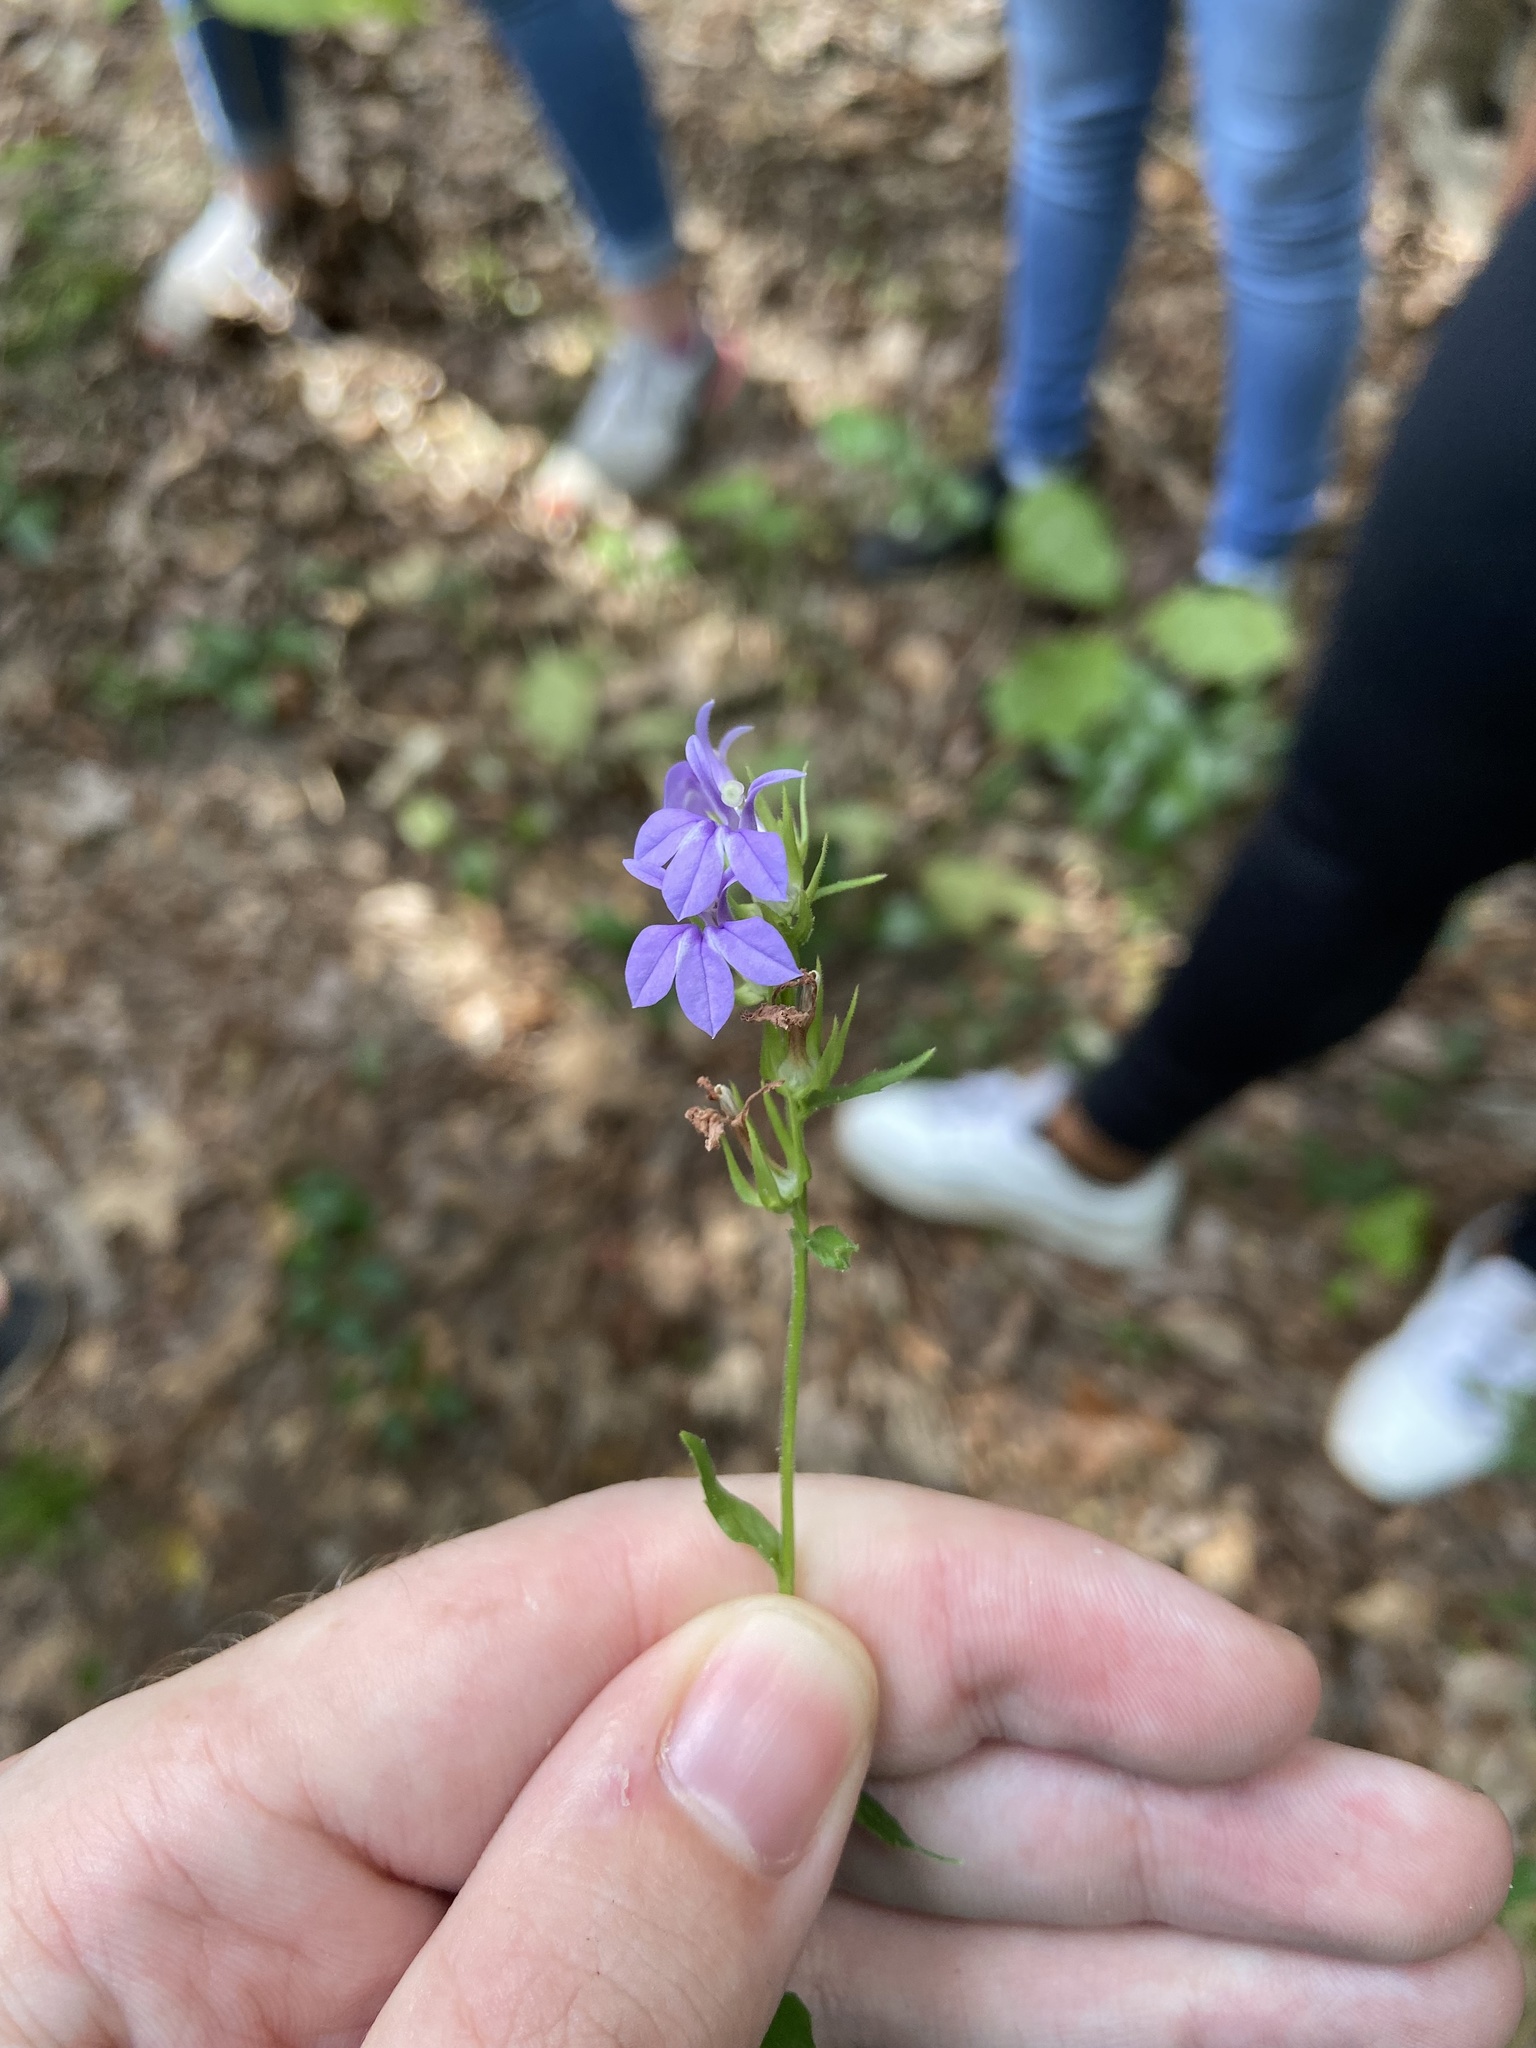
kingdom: Plantae
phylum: Tracheophyta
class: Magnoliopsida
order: Asterales
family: Campanulaceae
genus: Lobelia
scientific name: Lobelia puberula
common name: Purple dewdrop
